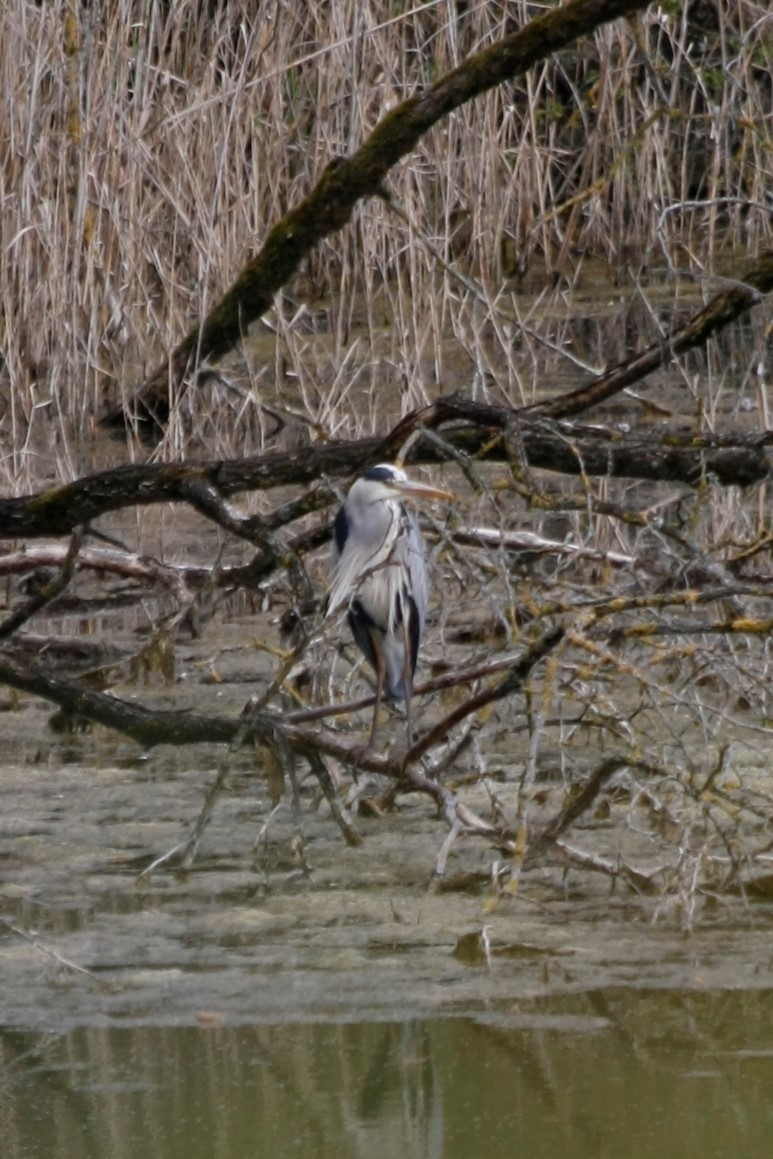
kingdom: Animalia
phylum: Chordata
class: Aves
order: Pelecaniformes
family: Ardeidae
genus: Ardea
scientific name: Ardea cinerea
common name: Grey heron
